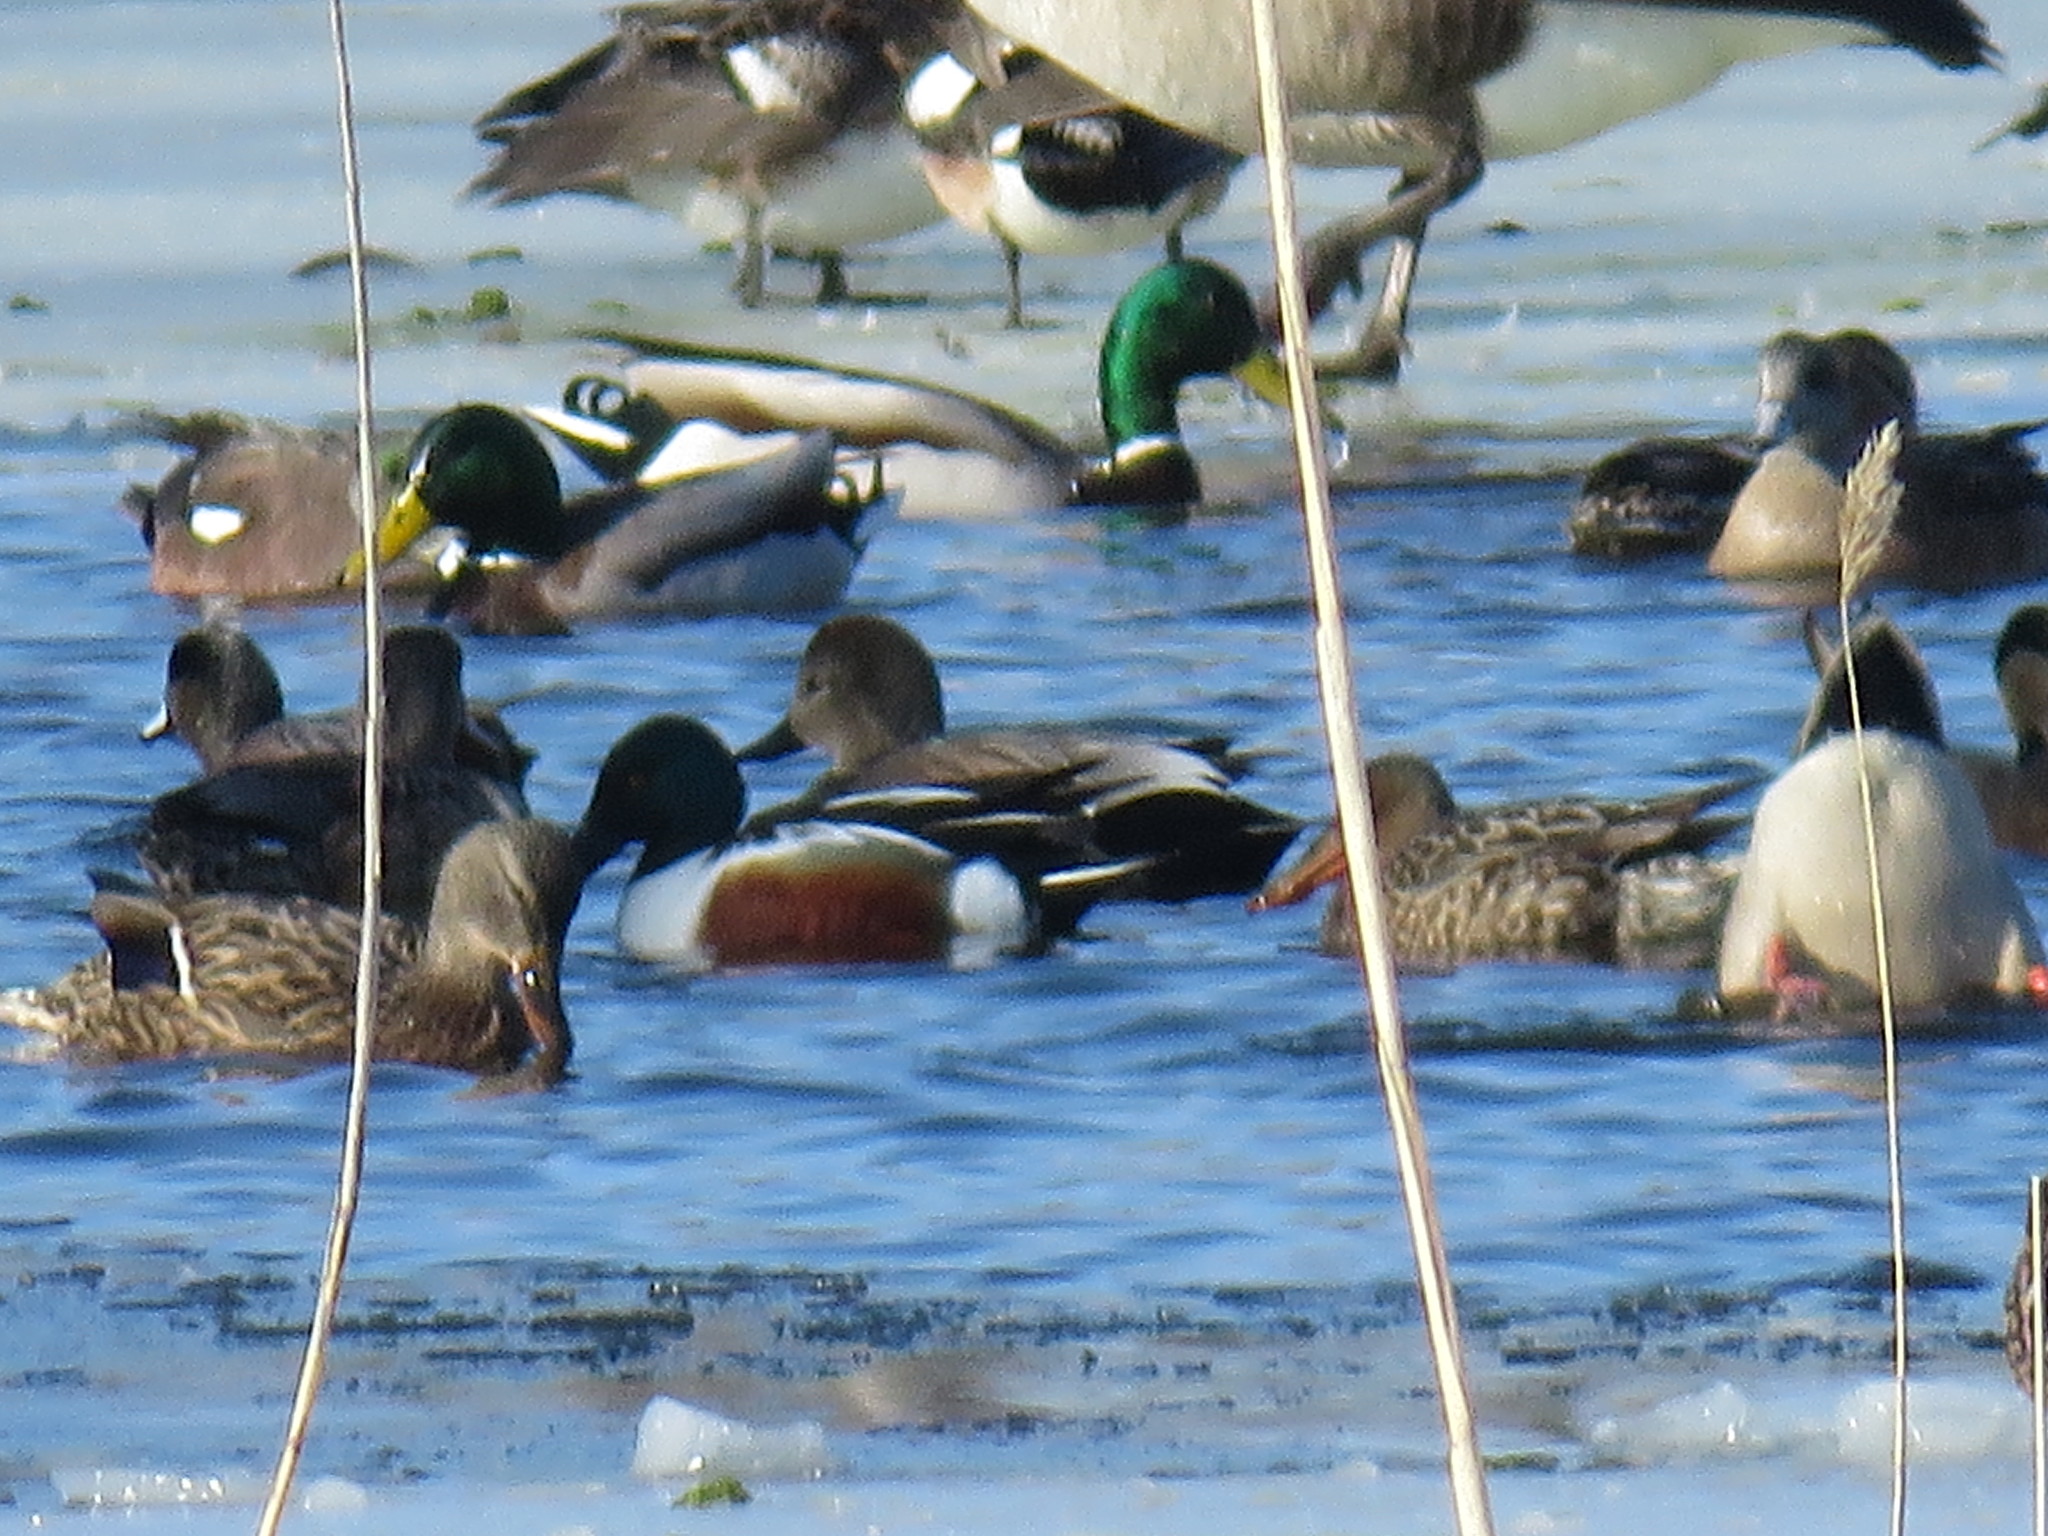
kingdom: Animalia
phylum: Chordata
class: Aves
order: Anseriformes
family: Anatidae
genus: Spatula
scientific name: Spatula clypeata
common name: Northern shoveler
